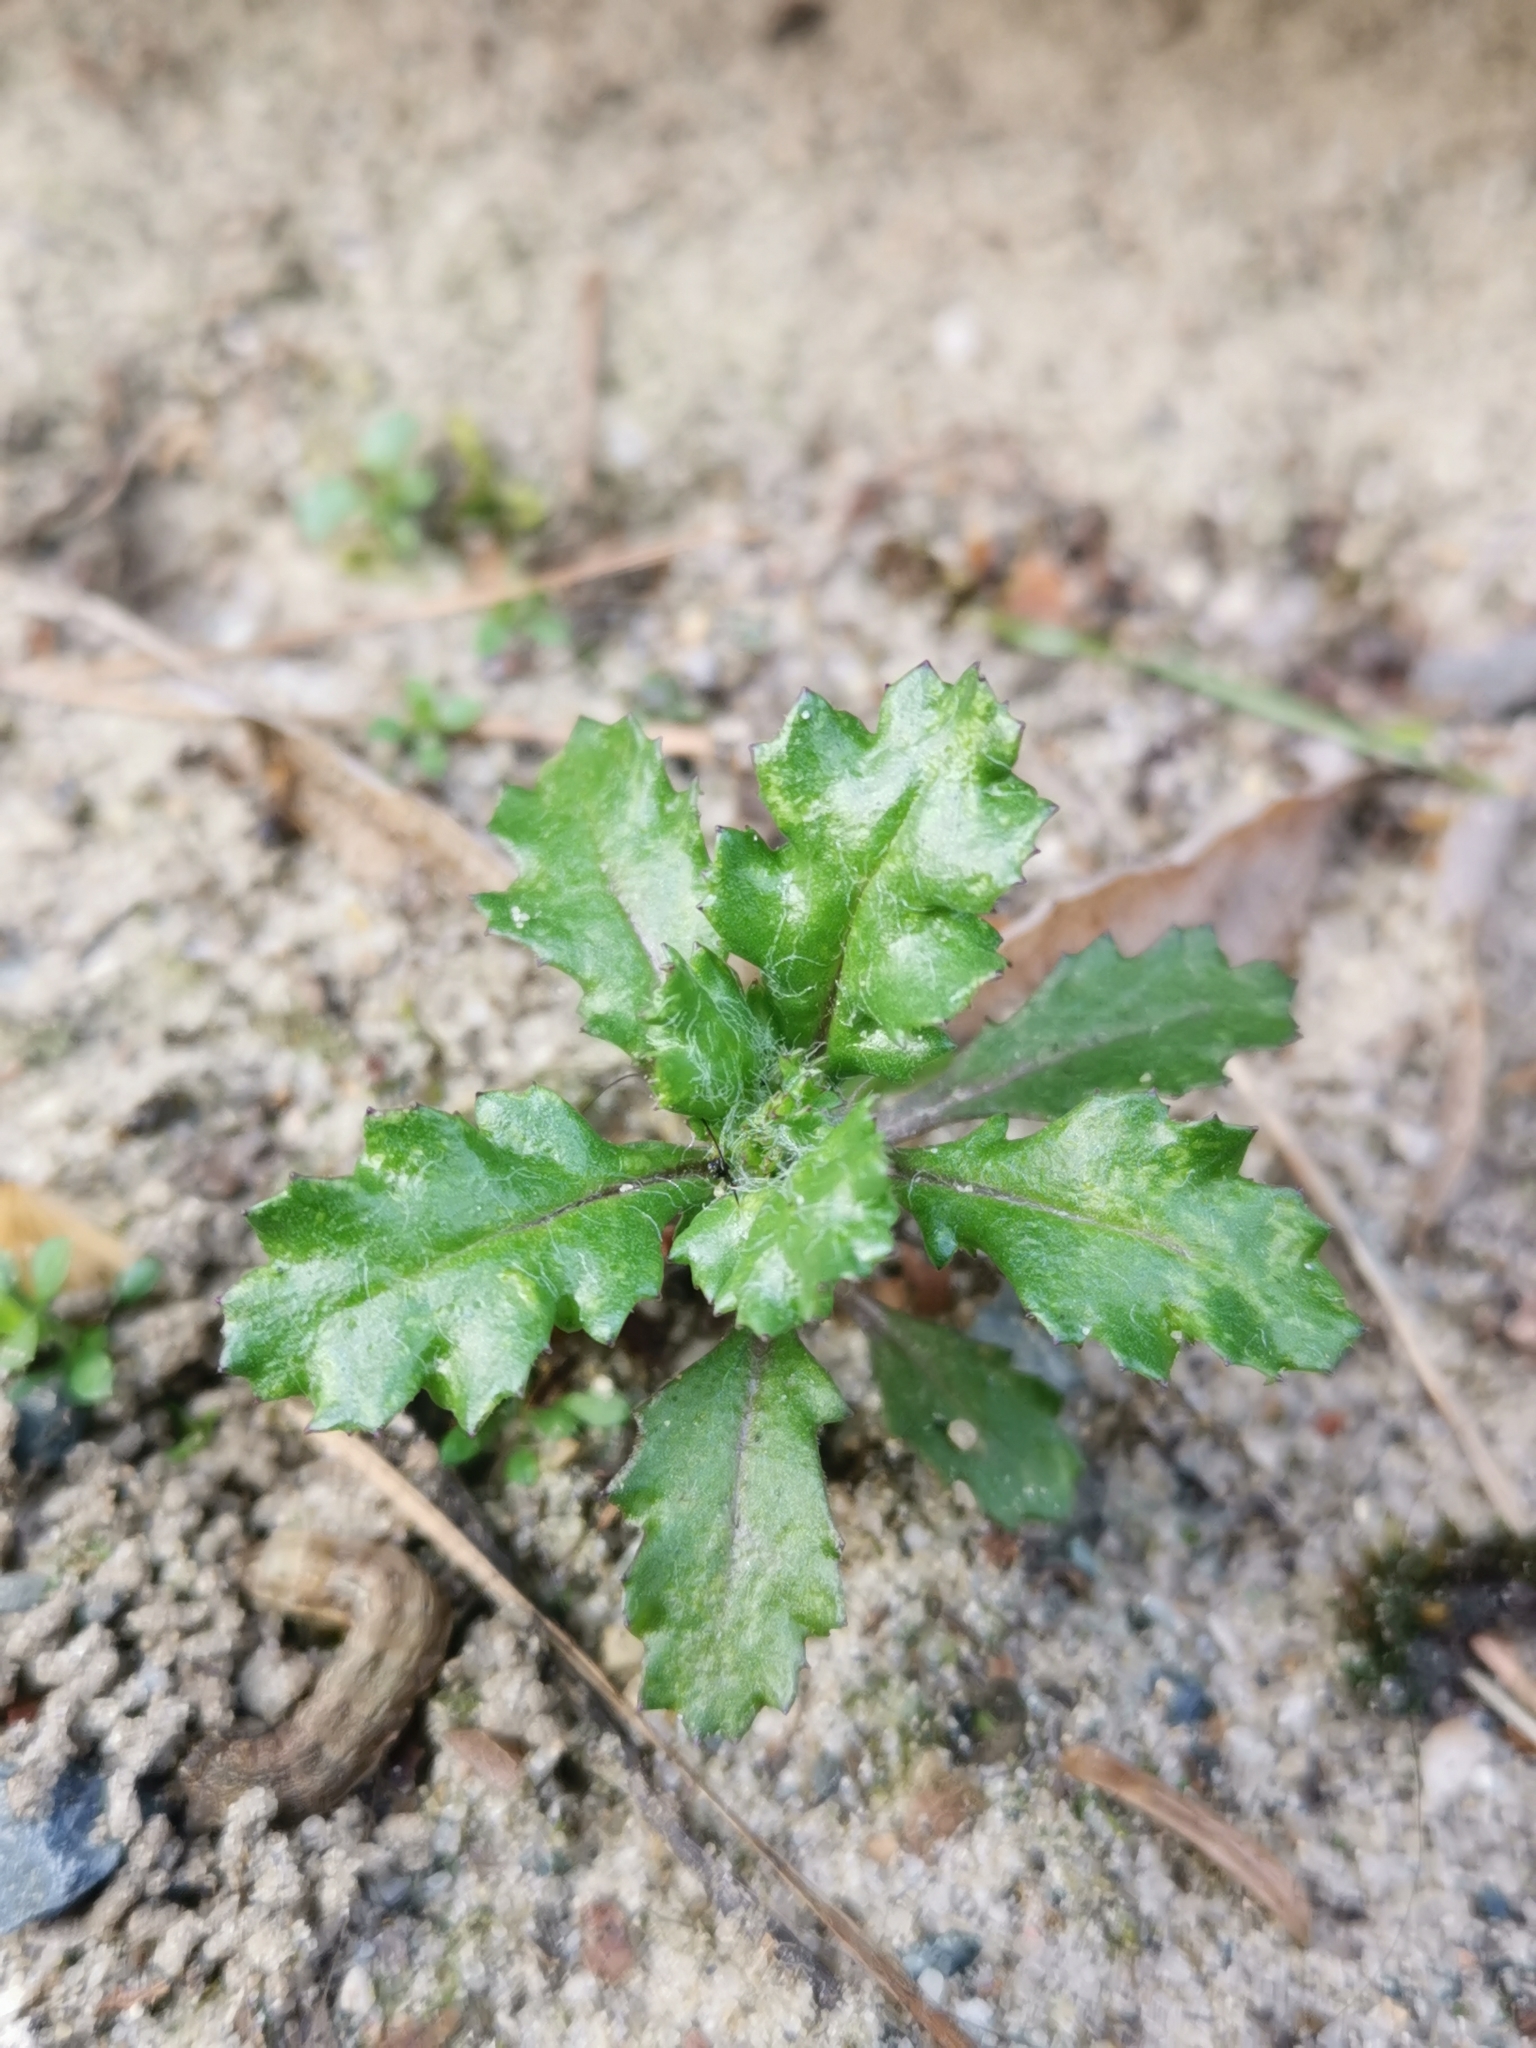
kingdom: Plantae
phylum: Tracheophyta
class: Magnoliopsida
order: Asterales
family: Asteraceae
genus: Senecio
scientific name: Senecio vulgaris
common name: Old-man-in-the-spring
